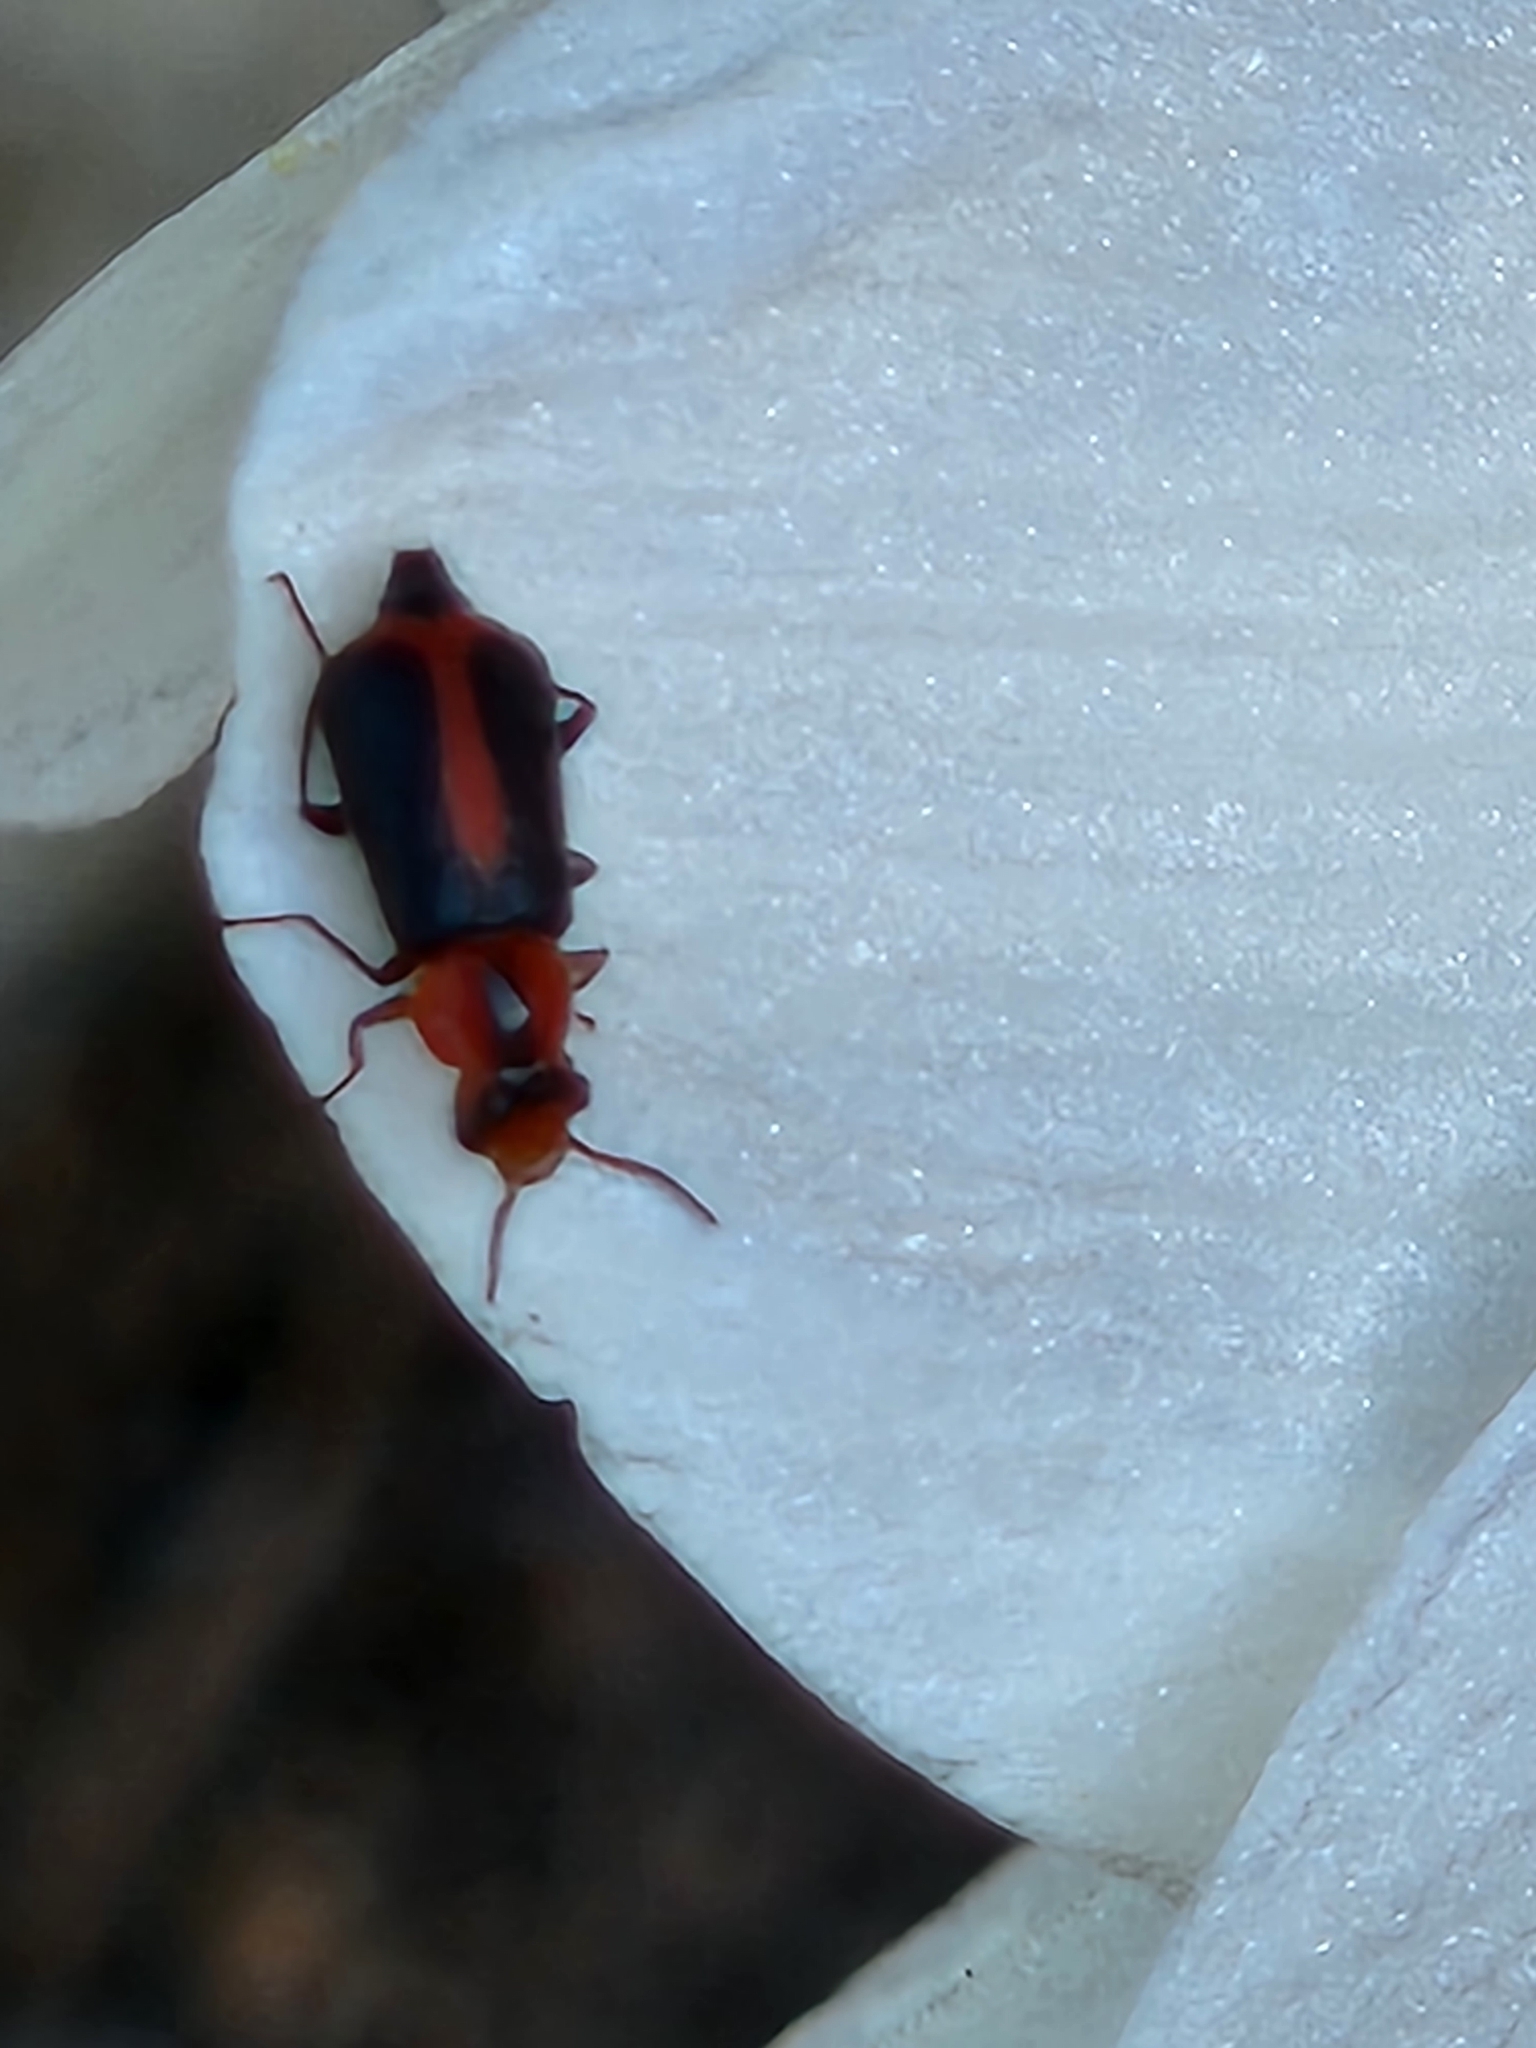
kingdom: Animalia
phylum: Arthropoda
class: Insecta
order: Coleoptera
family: Malachiidae
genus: Attalus
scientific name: Attalus
